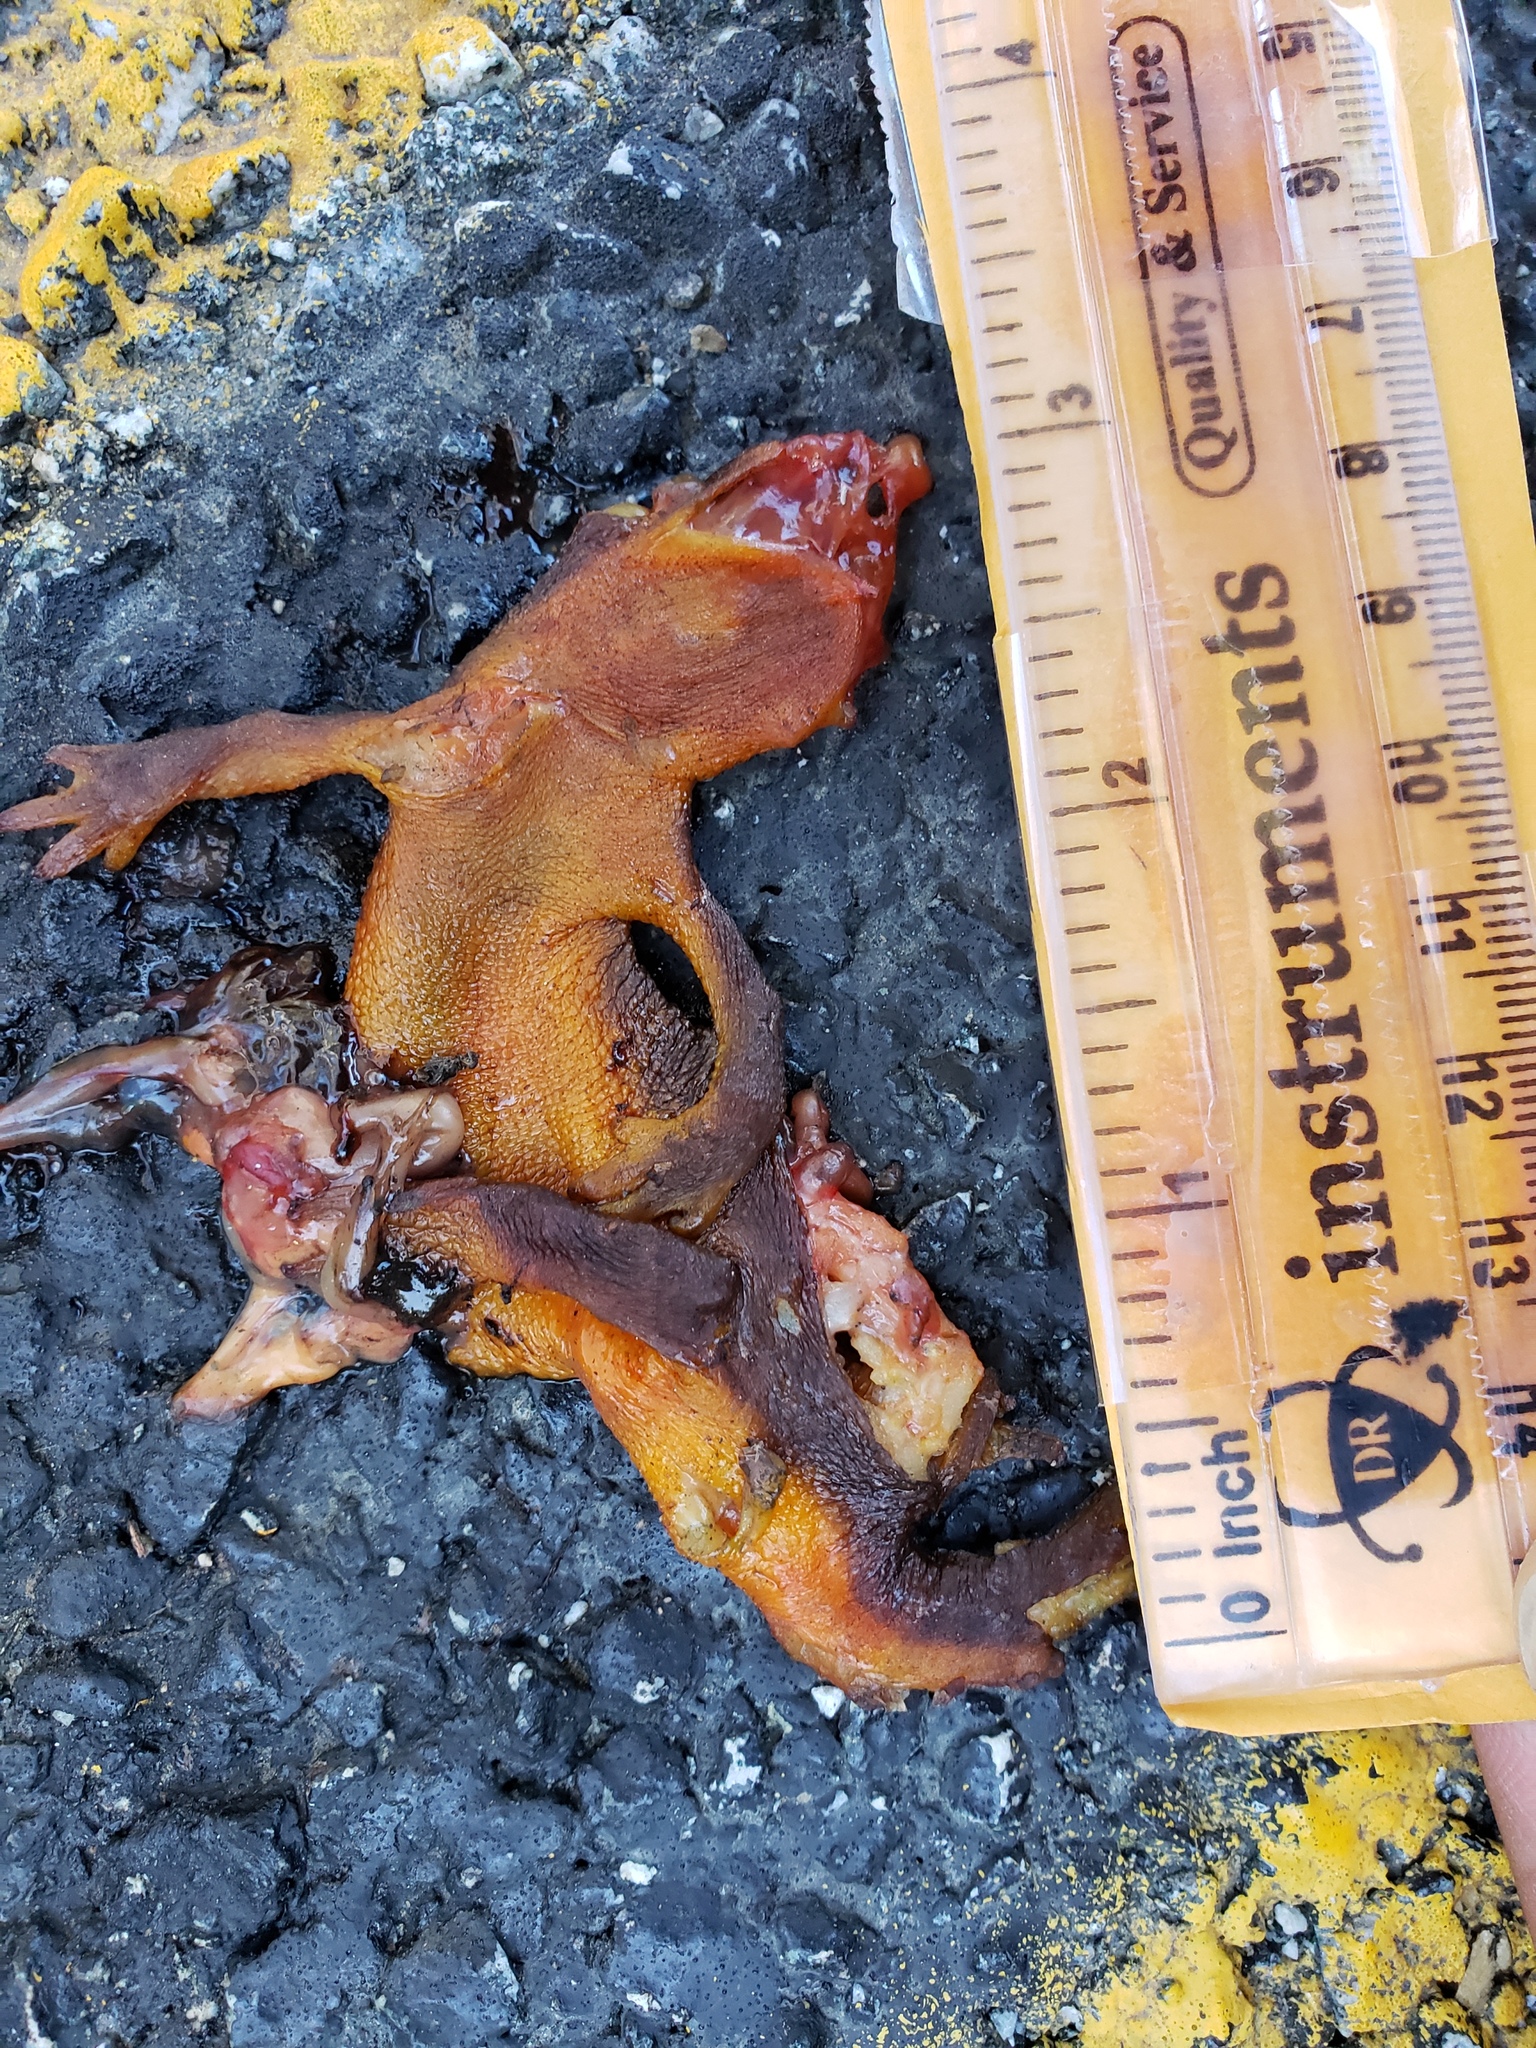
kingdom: Animalia
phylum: Chordata
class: Amphibia
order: Caudata
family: Salamandridae
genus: Taricha
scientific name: Taricha
